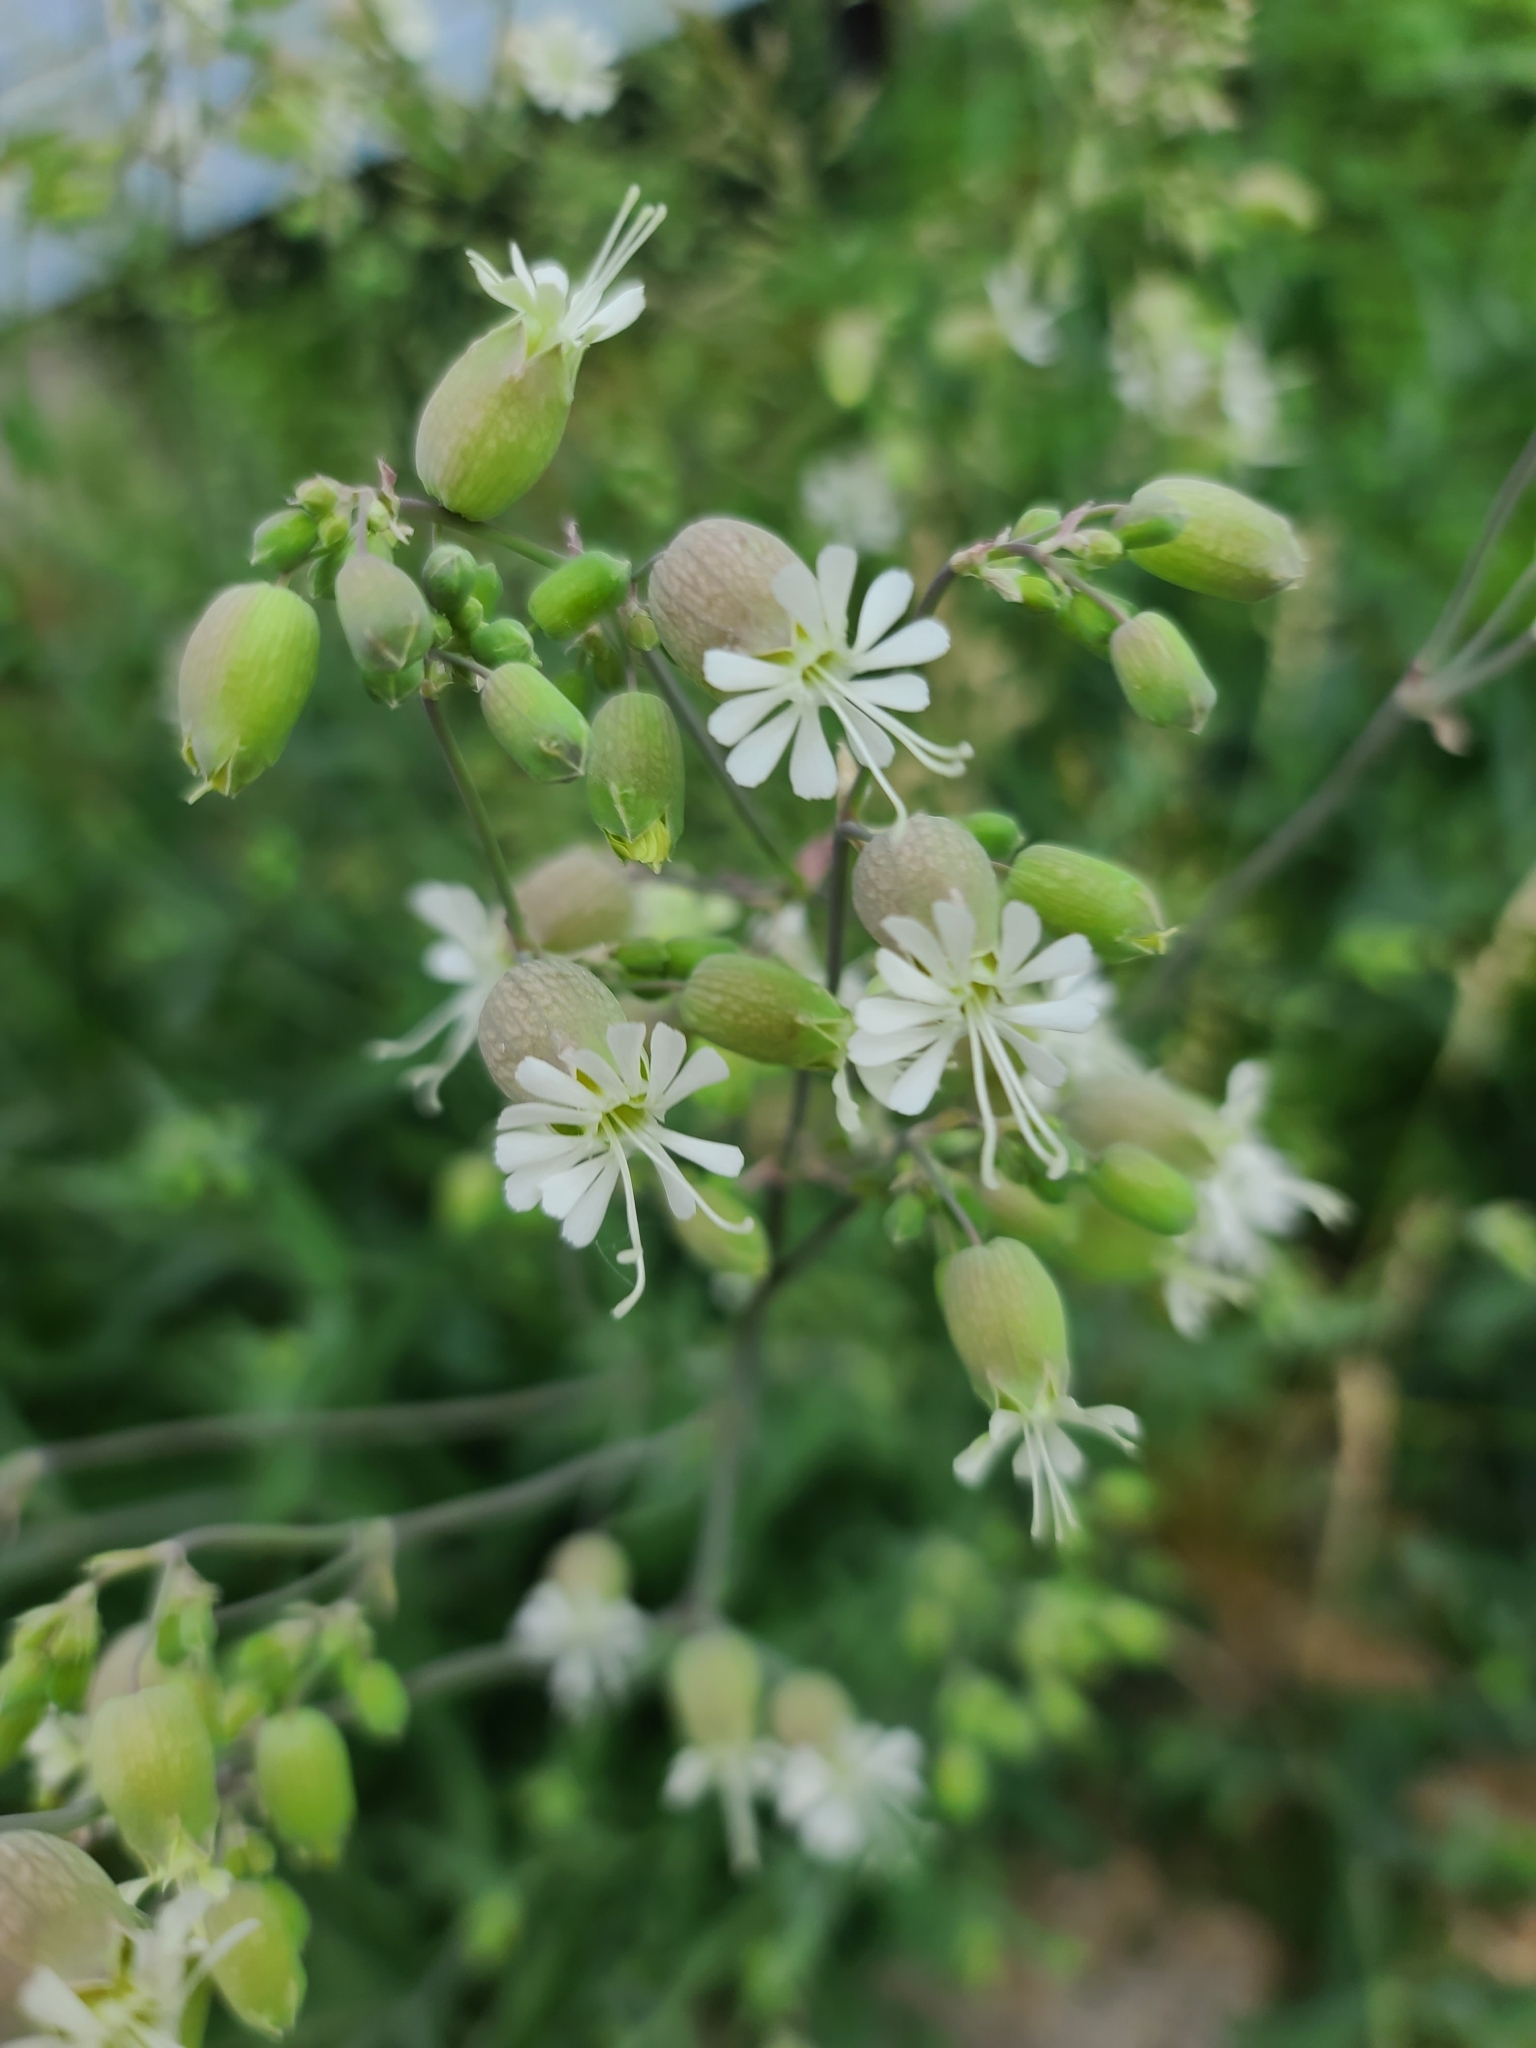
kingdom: Plantae
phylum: Tracheophyta
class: Magnoliopsida
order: Caryophyllales
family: Caryophyllaceae
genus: Silene
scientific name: Silene vulgaris
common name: Bladder campion
